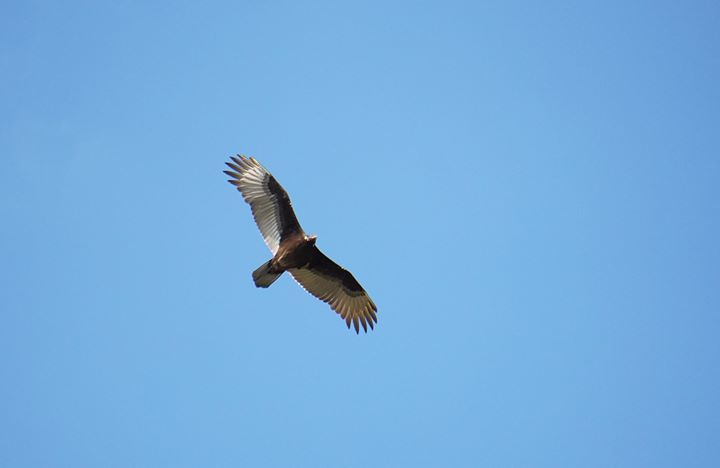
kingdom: Animalia
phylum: Chordata
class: Aves
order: Accipitriformes
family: Cathartidae
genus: Cathartes
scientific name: Cathartes aura
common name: Turkey vulture
